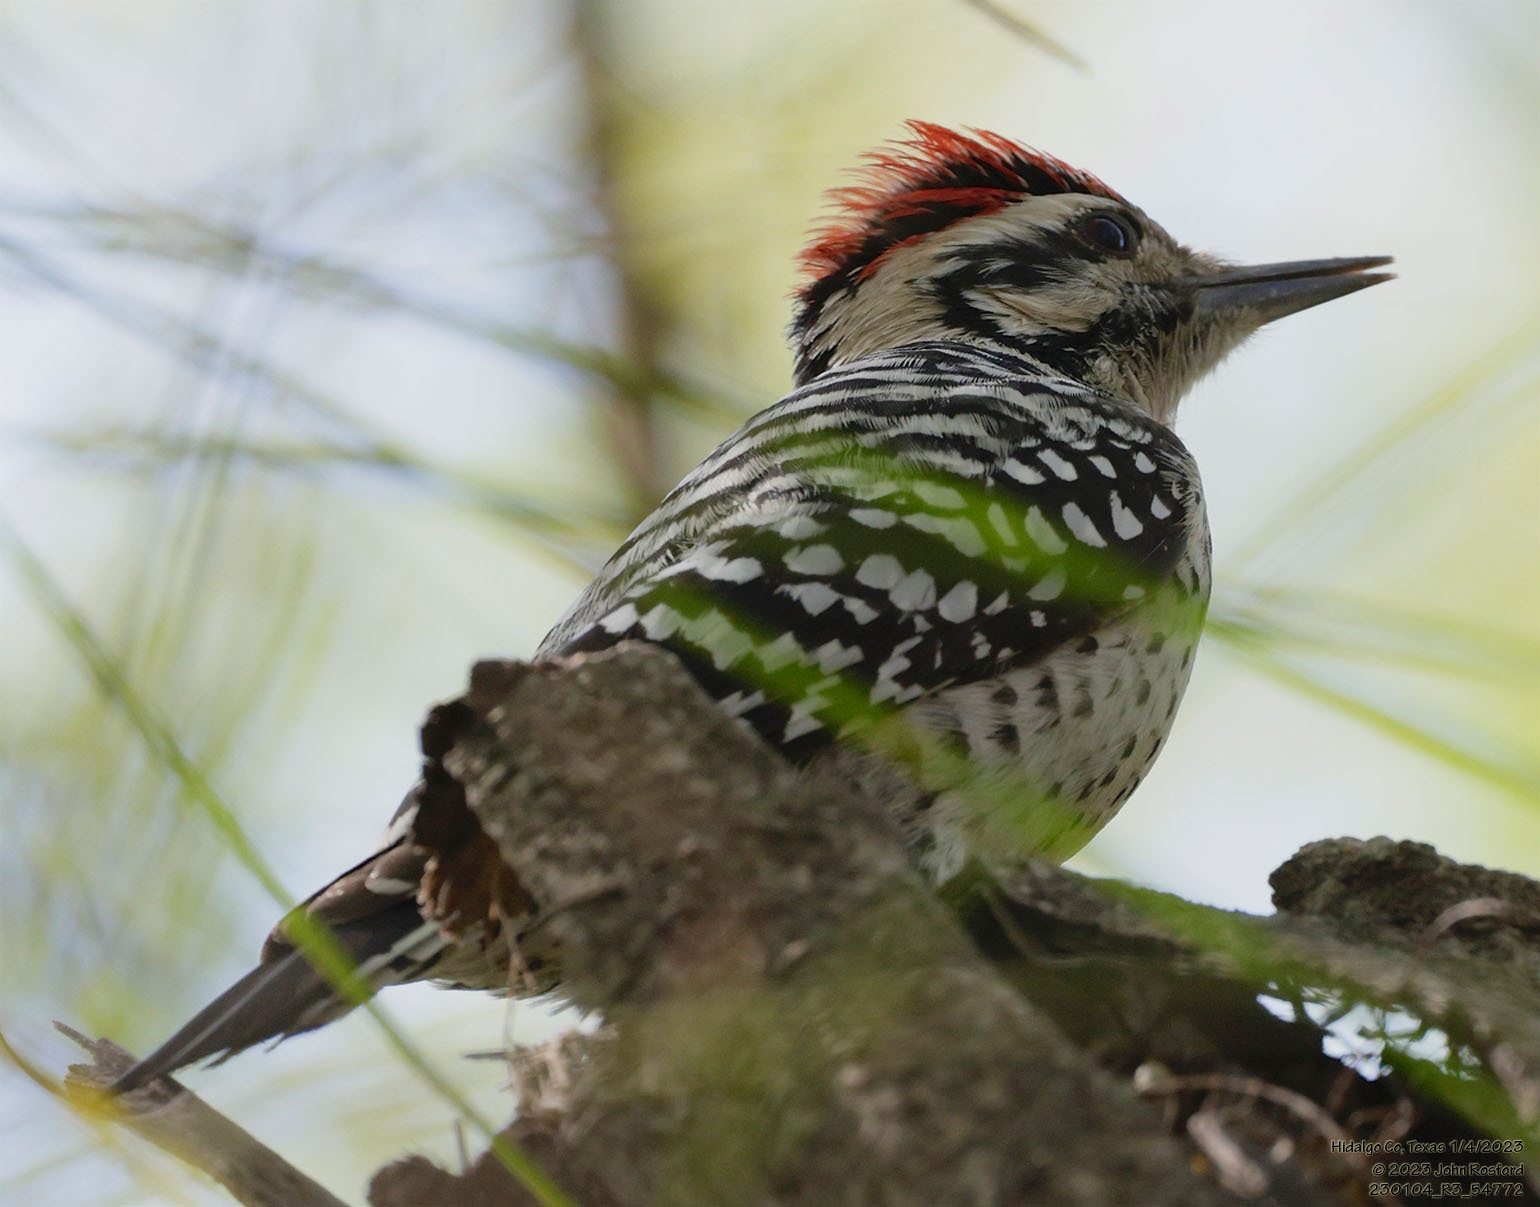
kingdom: Animalia
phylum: Chordata
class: Aves
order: Piciformes
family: Picidae
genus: Dryobates
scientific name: Dryobates scalaris
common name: Ladder-backed woodpecker
